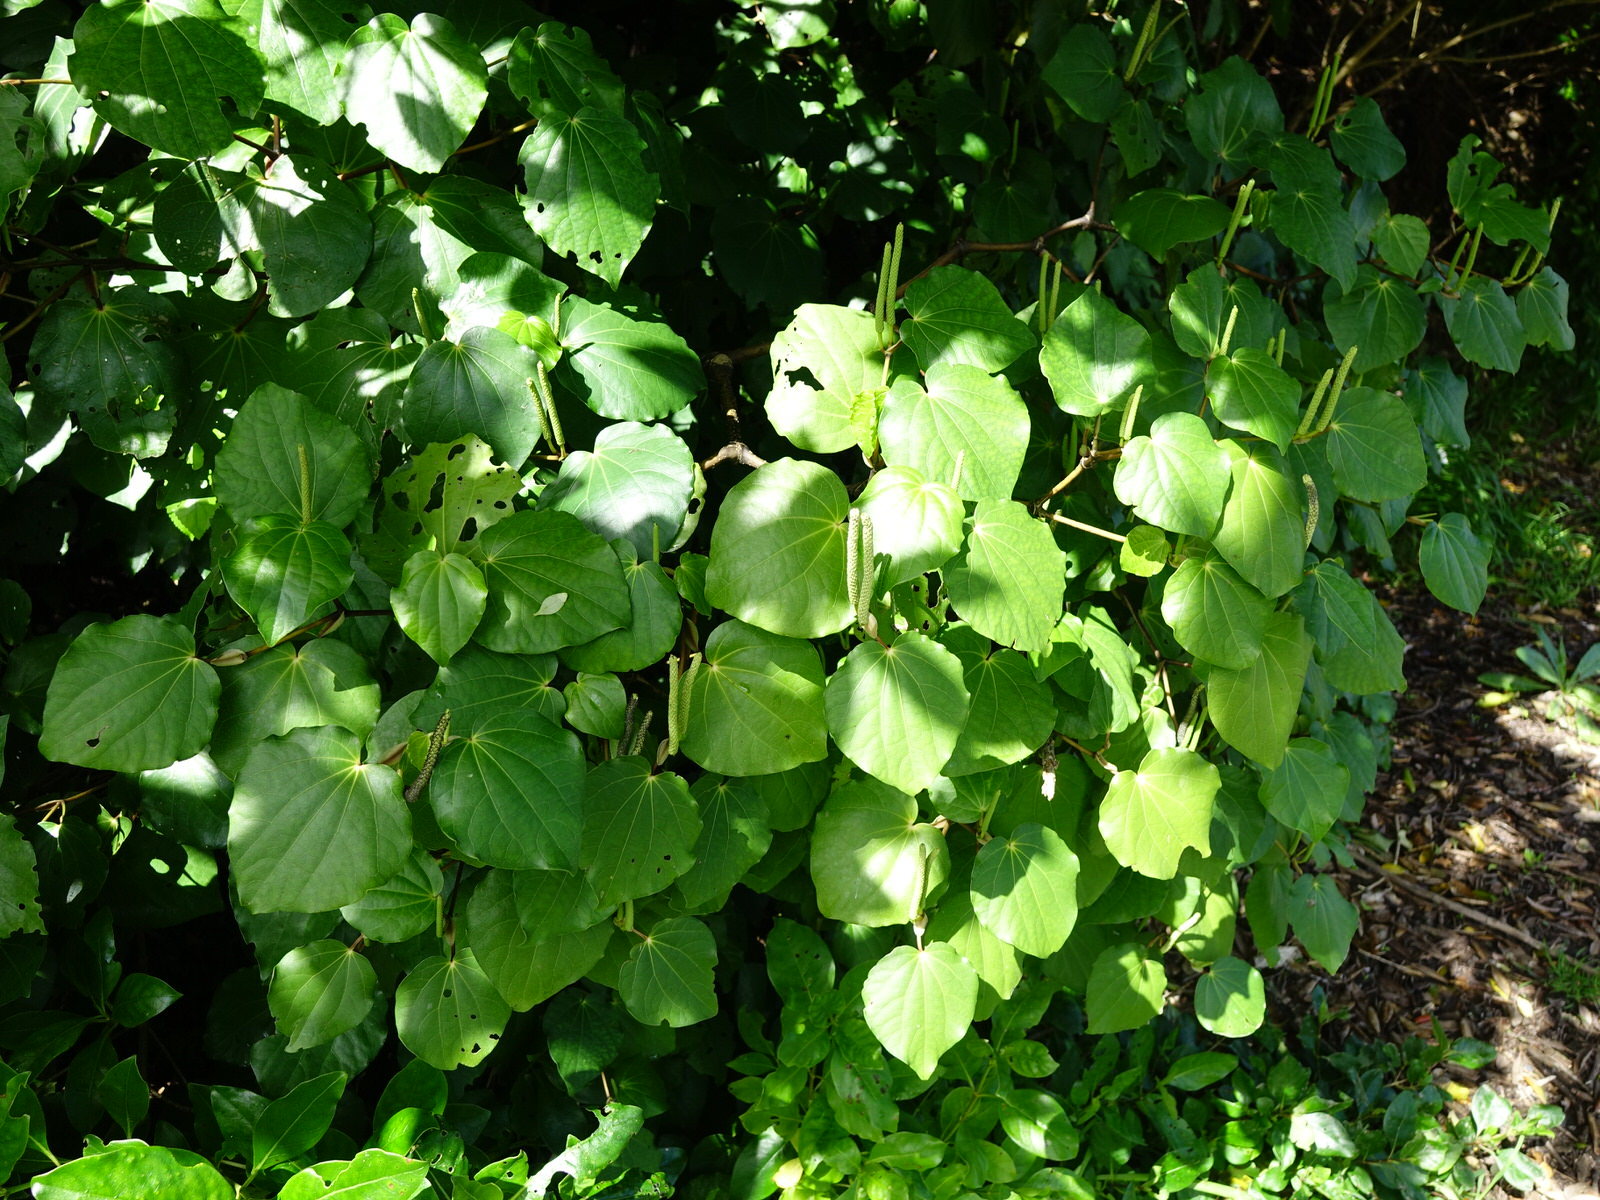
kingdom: Plantae
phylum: Tracheophyta
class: Magnoliopsida
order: Piperales
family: Piperaceae
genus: Macropiper
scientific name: Macropiper excelsum
